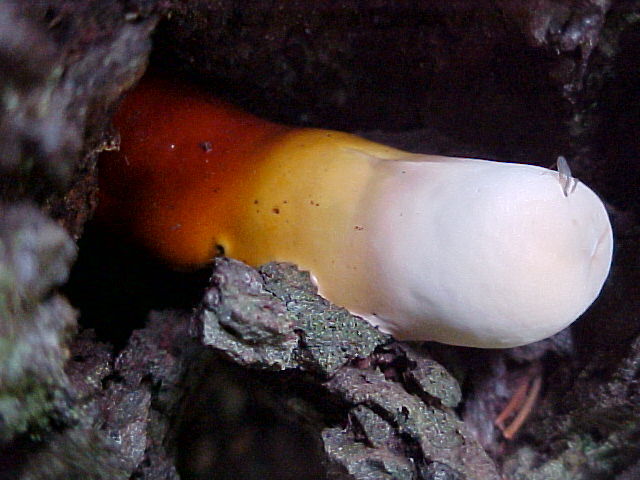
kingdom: Fungi
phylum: Basidiomycota
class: Agaricomycetes
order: Polyporales
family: Polyporaceae
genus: Ganoderma
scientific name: Ganoderma tsugae
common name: Hemlock varnish shelf
